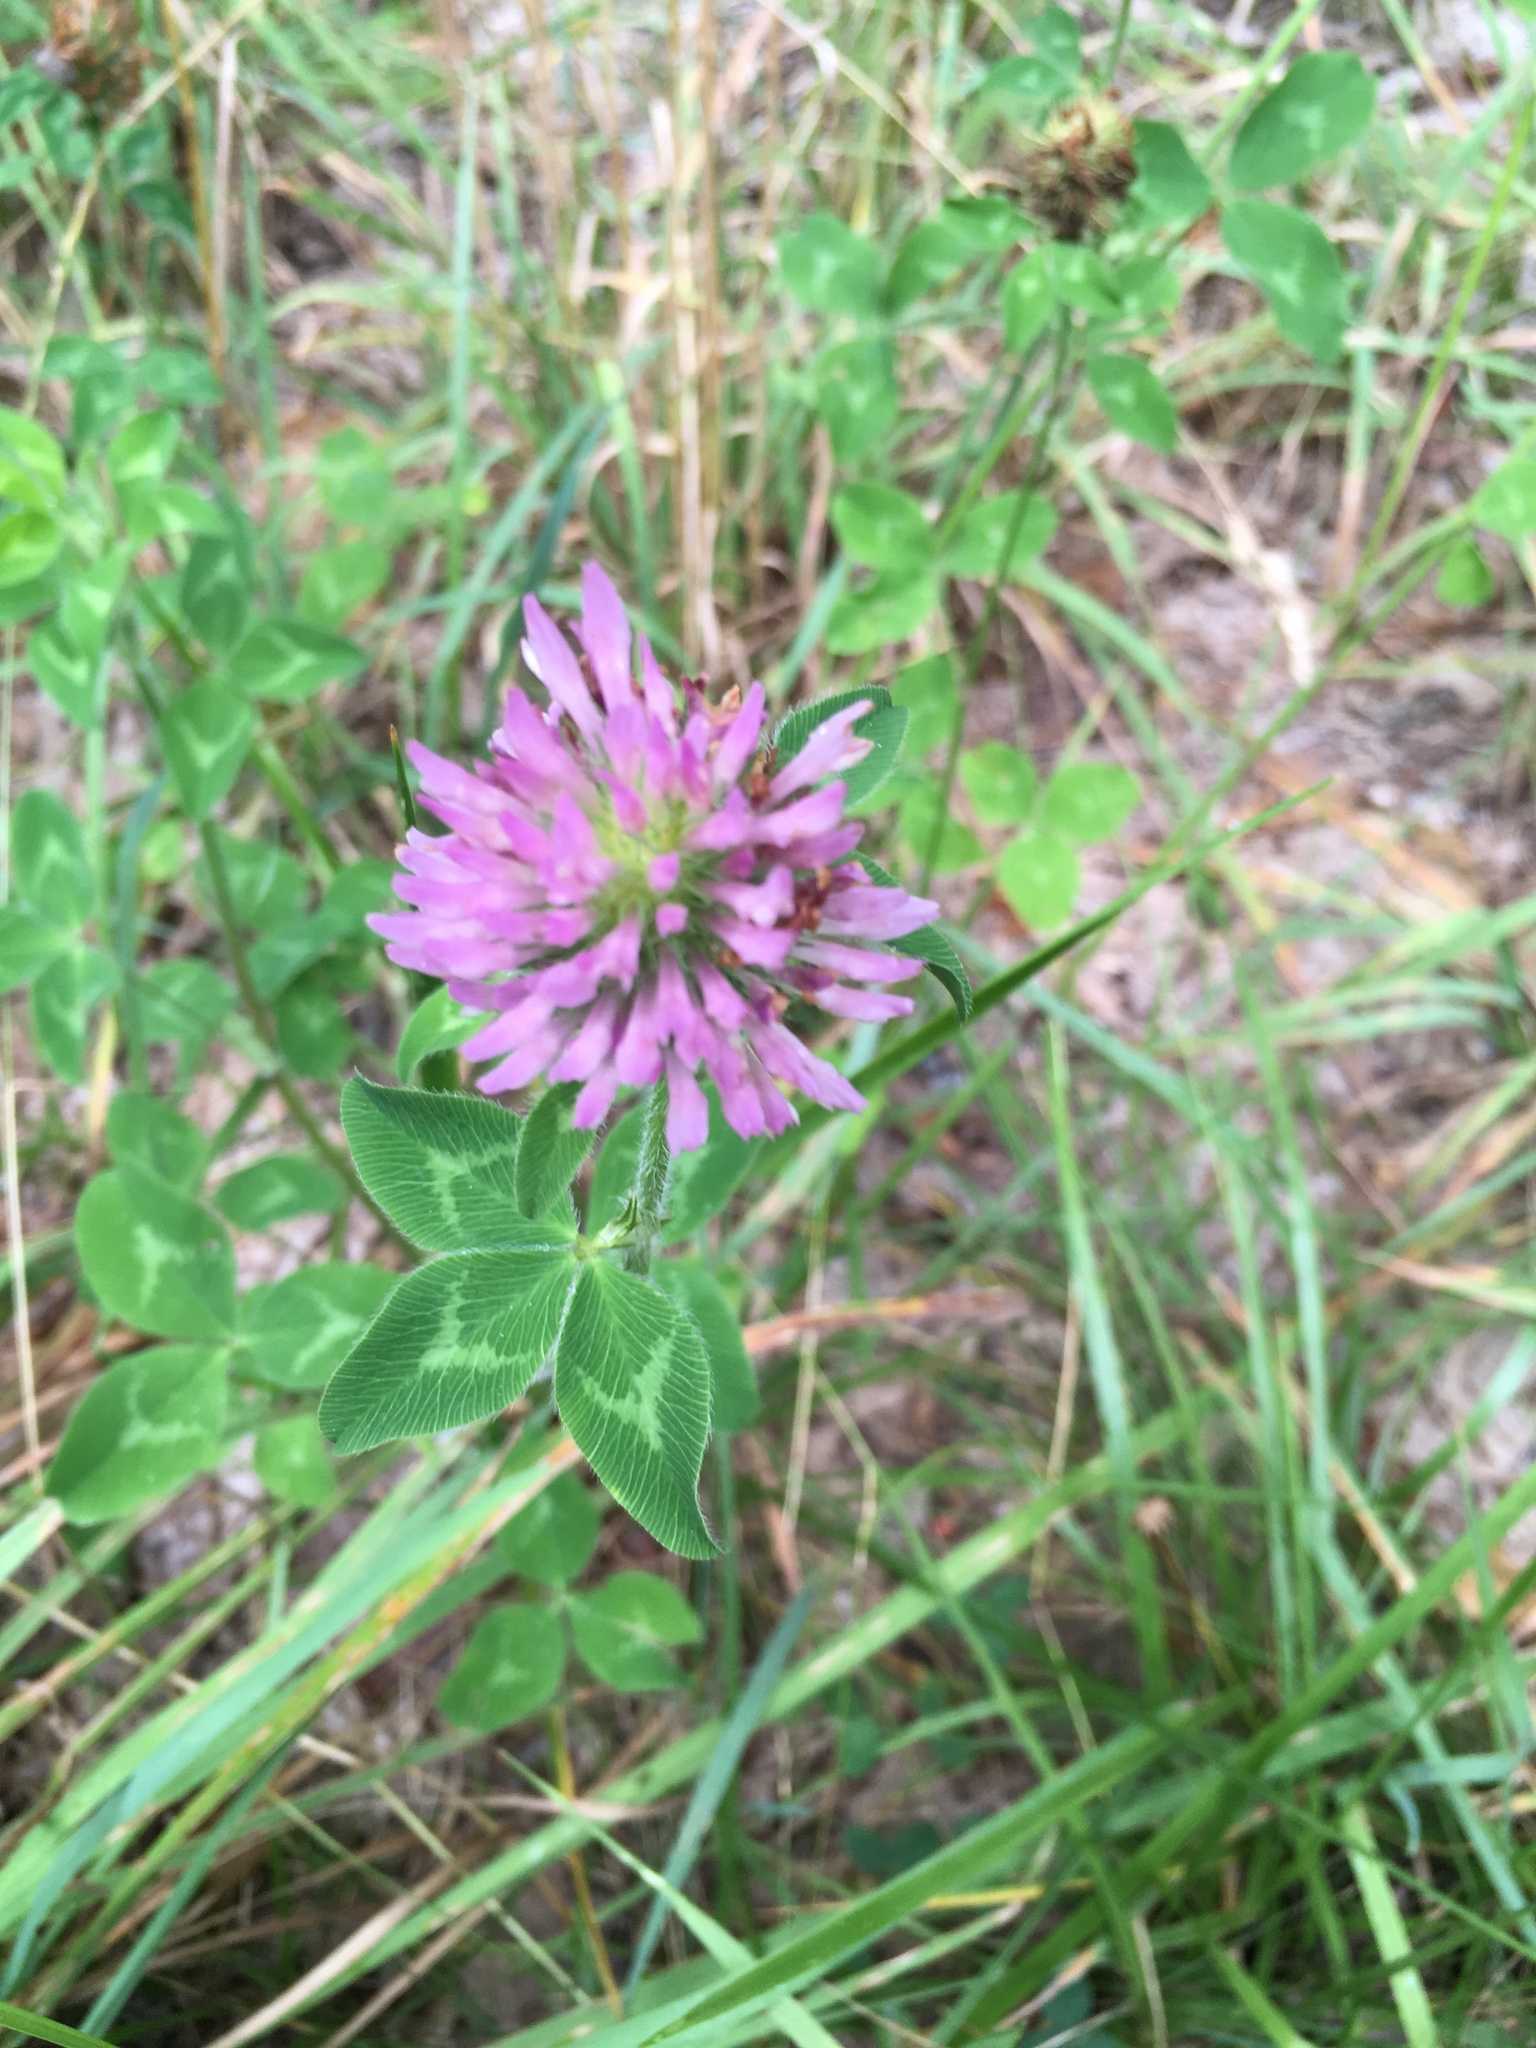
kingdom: Plantae
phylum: Tracheophyta
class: Magnoliopsida
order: Fabales
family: Fabaceae
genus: Trifolium
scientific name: Trifolium pratense
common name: Red clover
